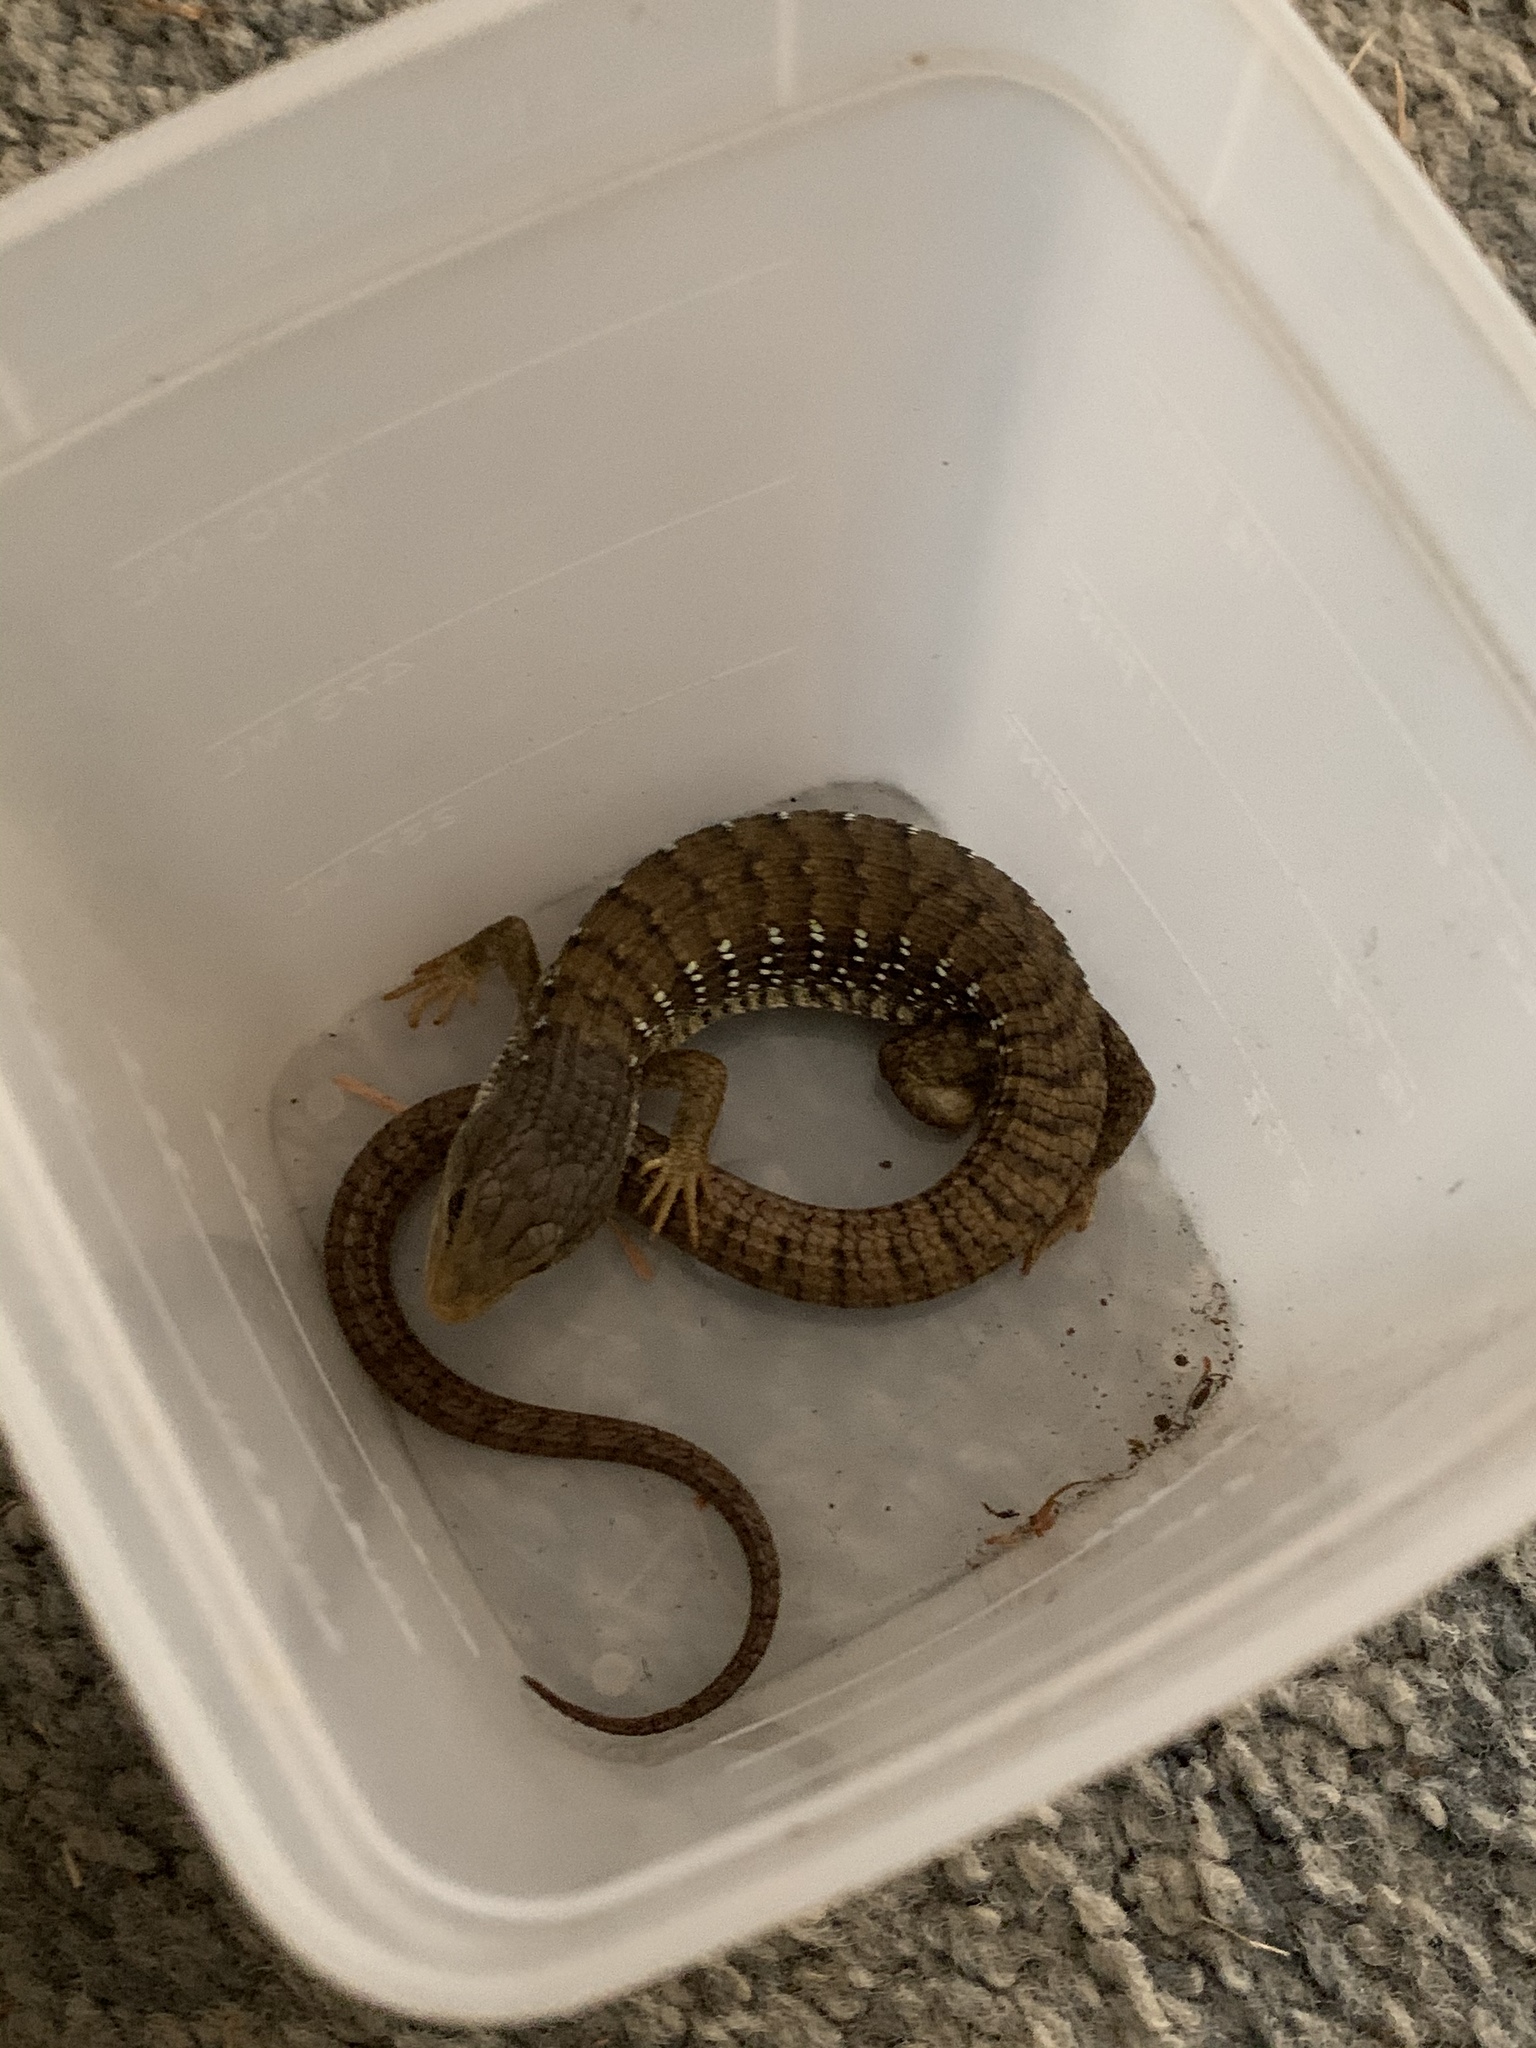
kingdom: Animalia
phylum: Chordata
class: Squamata
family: Anguidae
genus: Elgaria
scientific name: Elgaria multicarinata
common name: Southern alligator lizard
